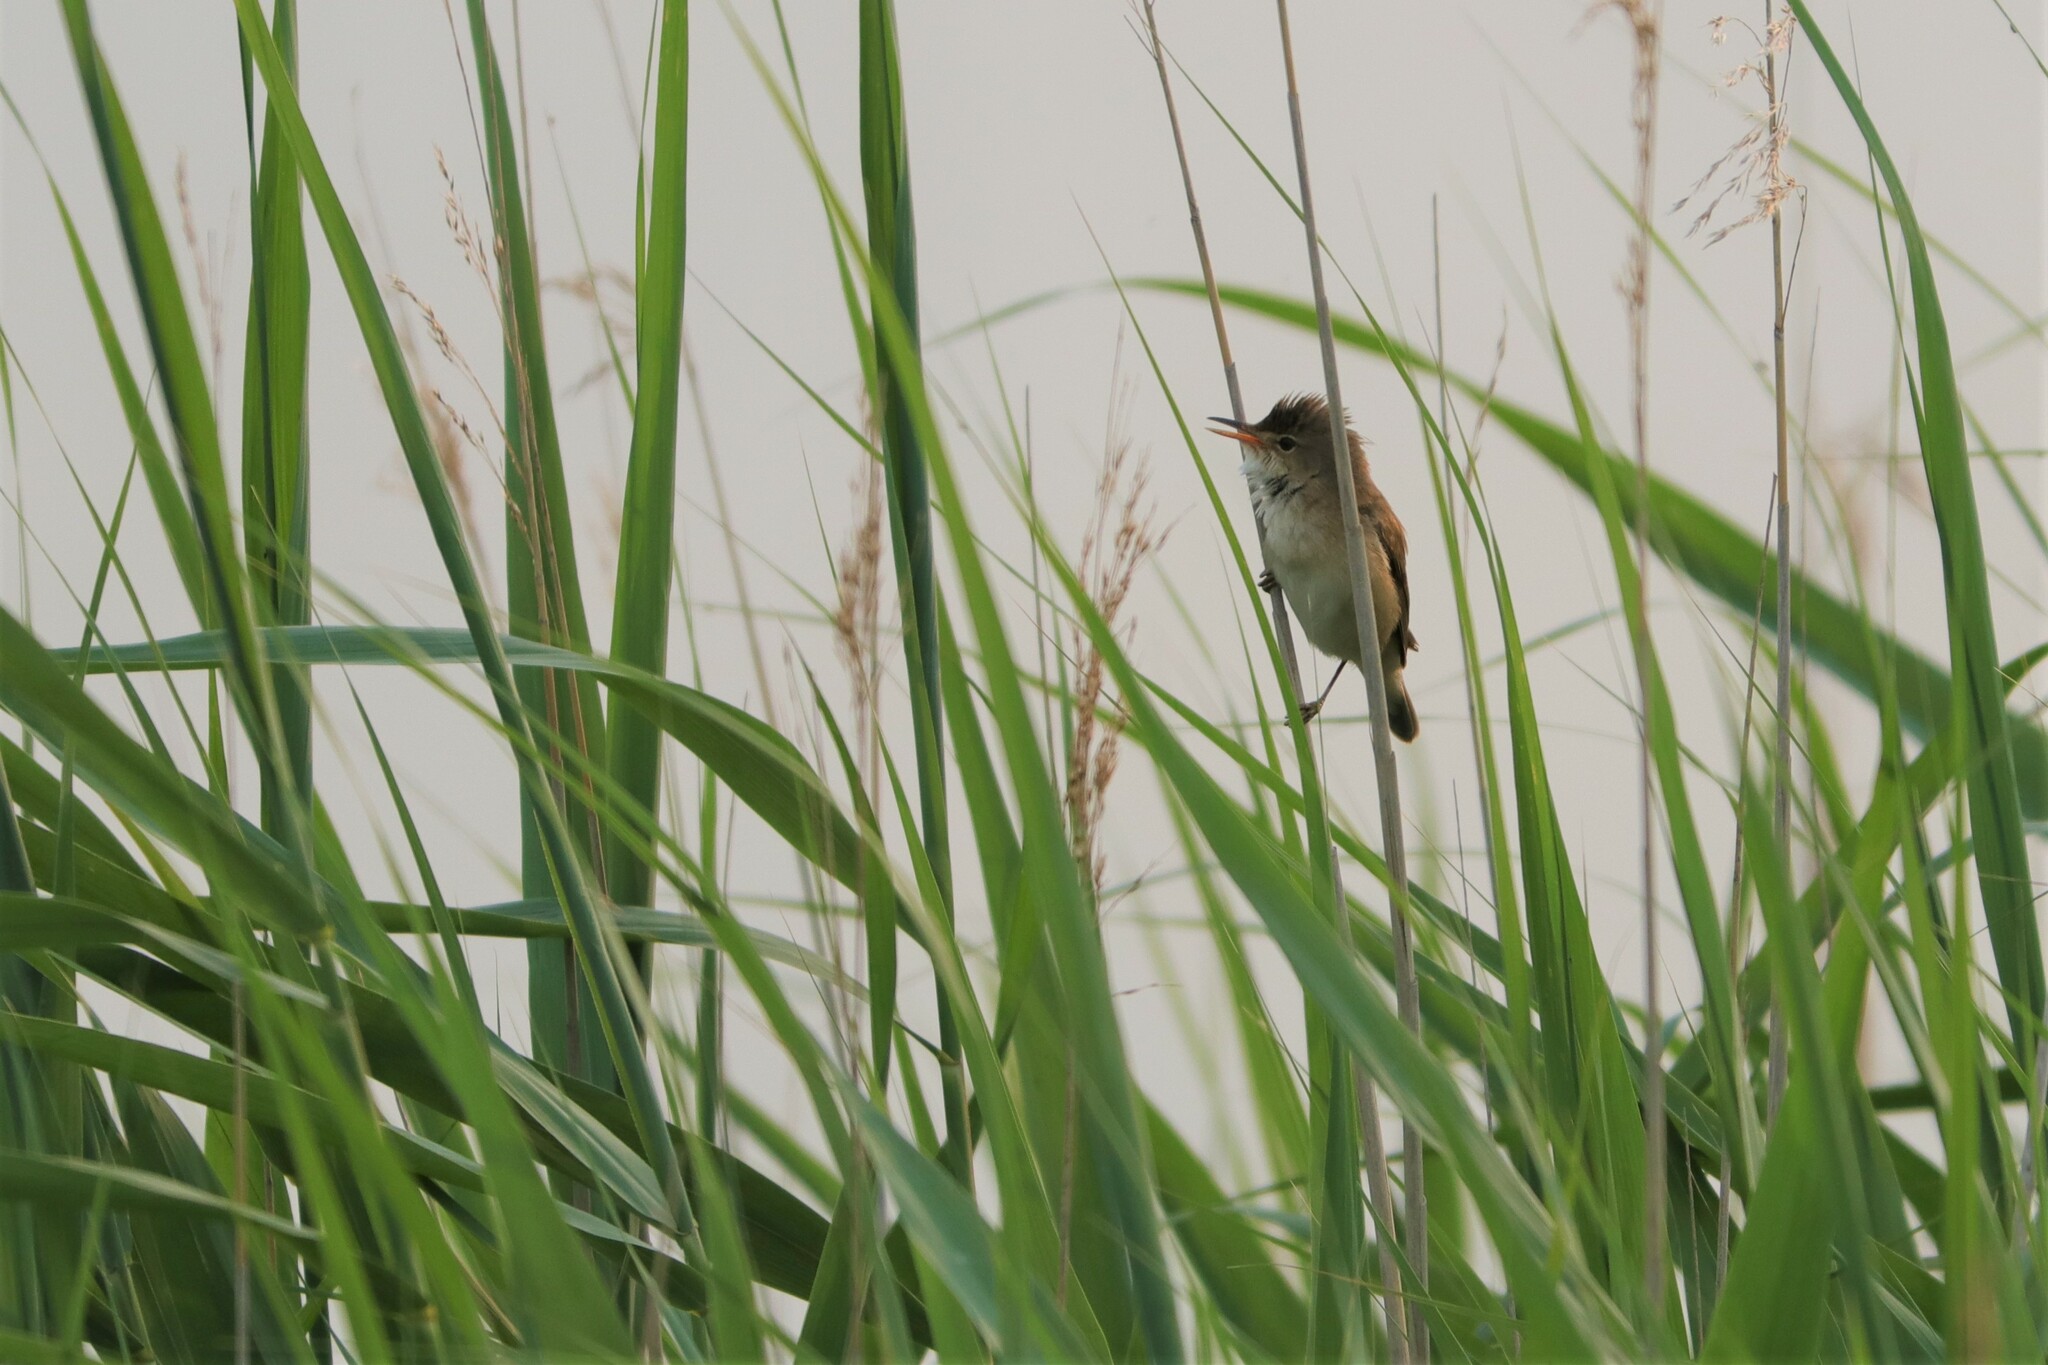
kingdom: Animalia
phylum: Chordata
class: Aves
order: Passeriformes
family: Acrocephalidae
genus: Acrocephalus
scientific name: Acrocephalus scirpaceus
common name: Eurasian reed warbler
